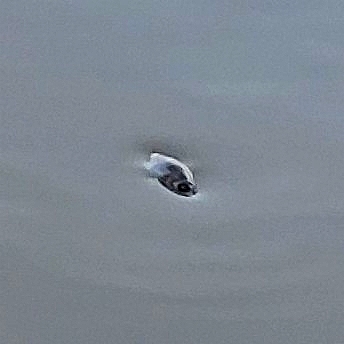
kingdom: Animalia
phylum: Arthropoda
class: Insecta
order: Coleoptera
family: Gyrinidae
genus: Dineutus
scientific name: Dineutus
